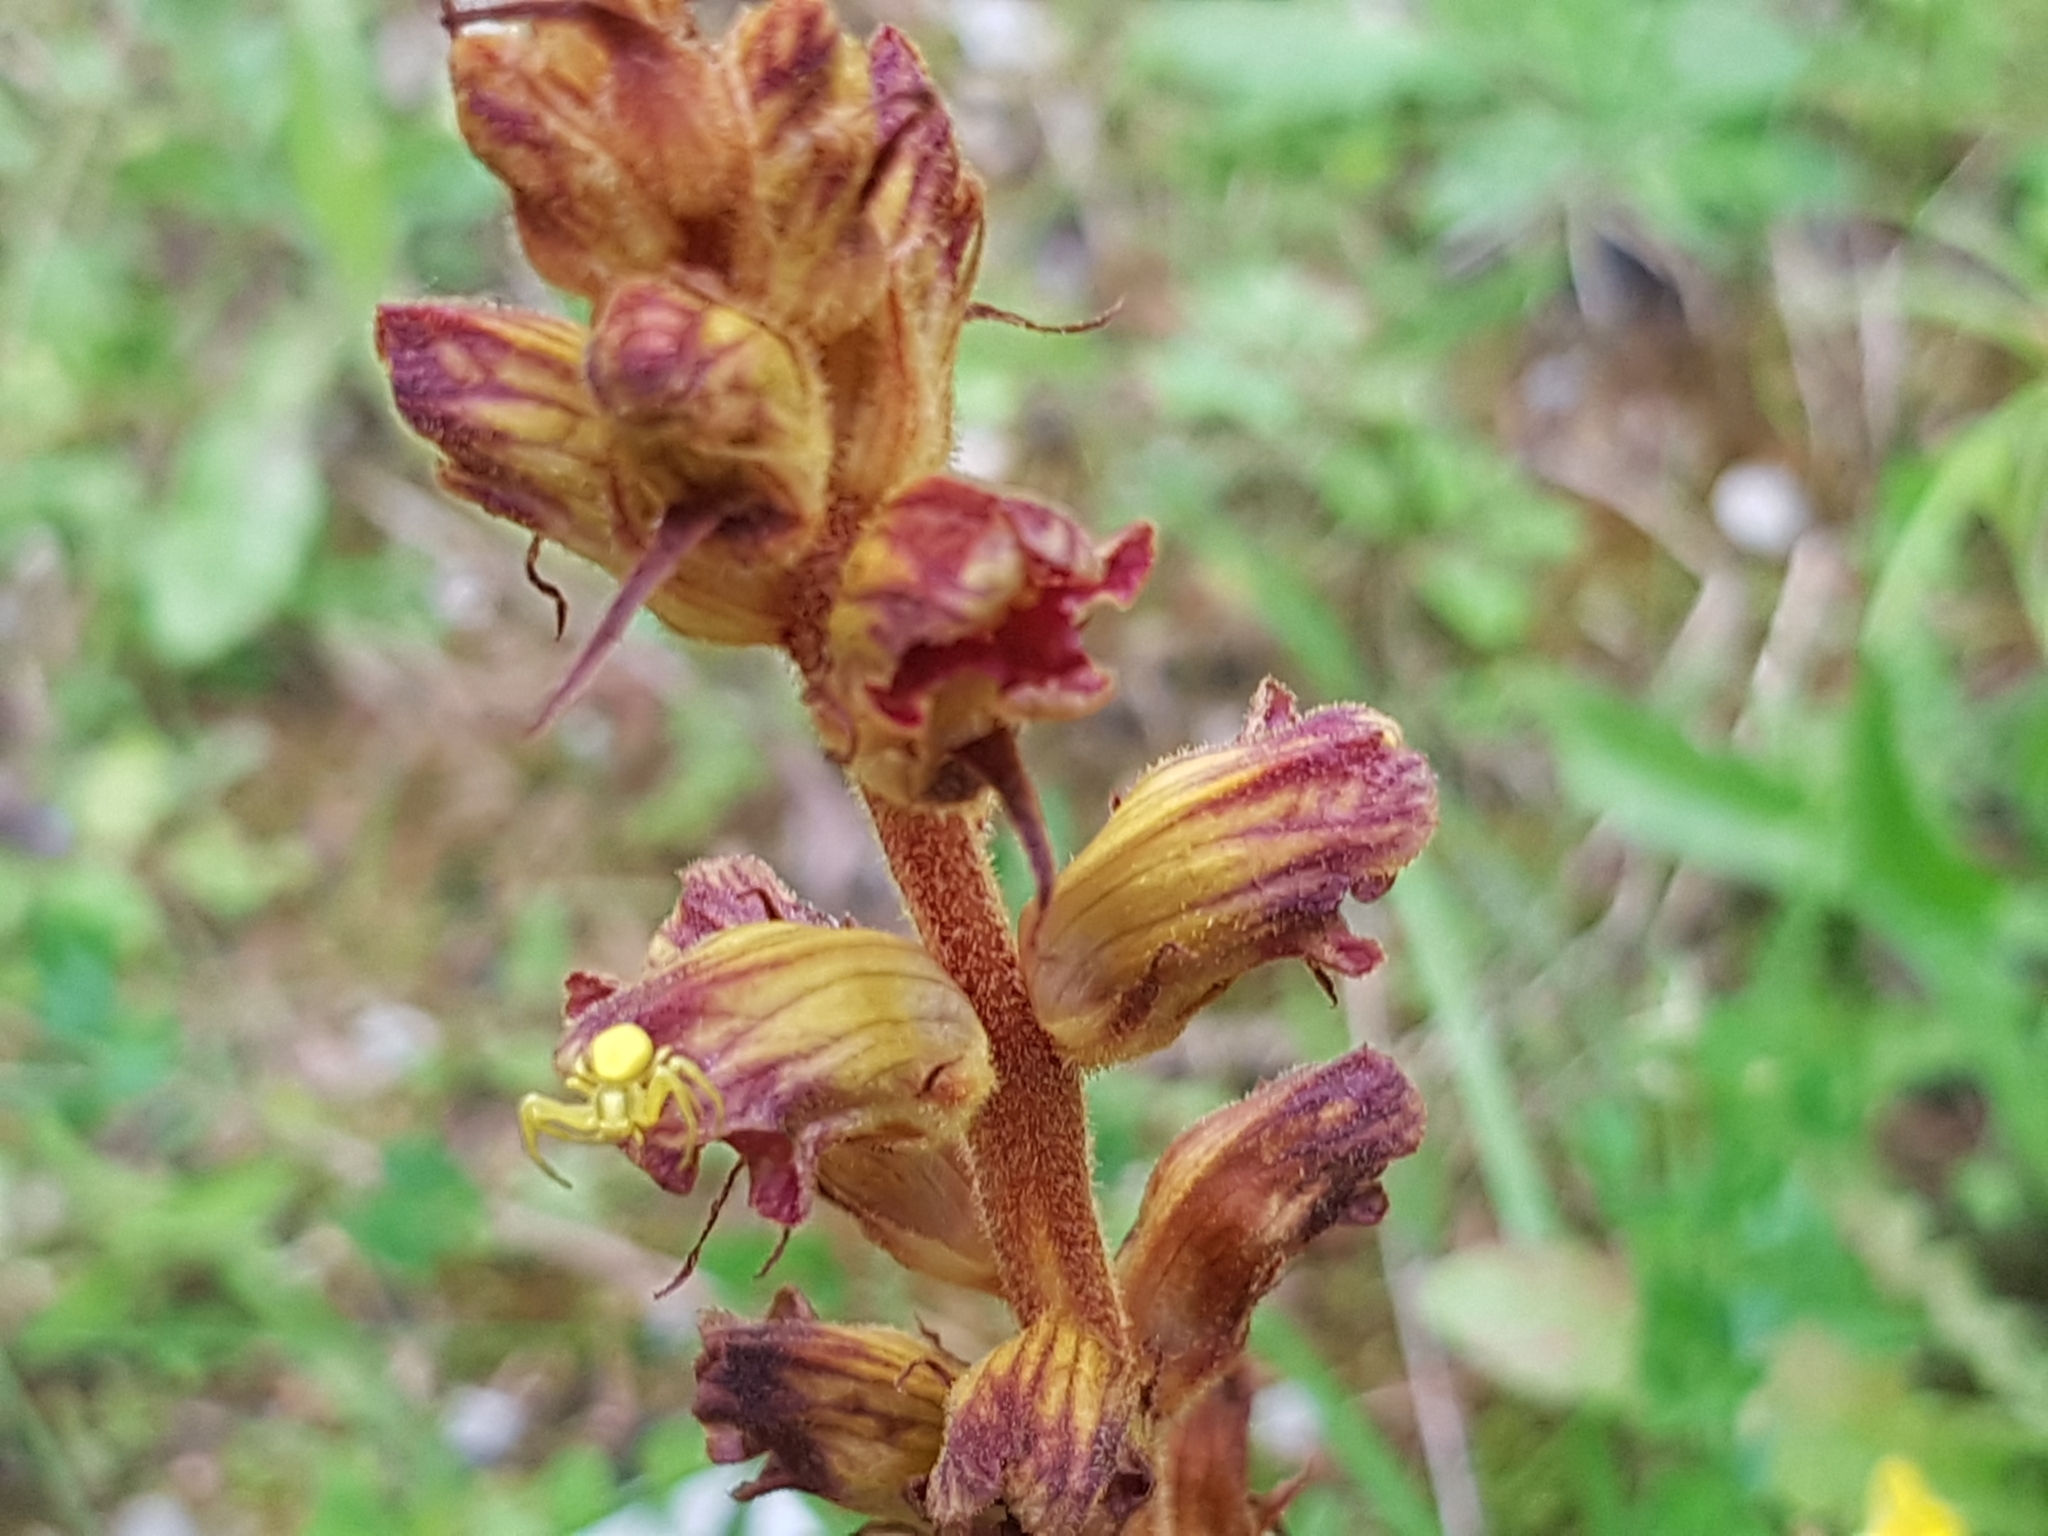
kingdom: Plantae
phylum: Tracheophyta
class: Magnoliopsida
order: Lamiales
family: Orobanchaceae
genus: Orobanche
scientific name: Orobanche gracilis
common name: Slender broomrape
